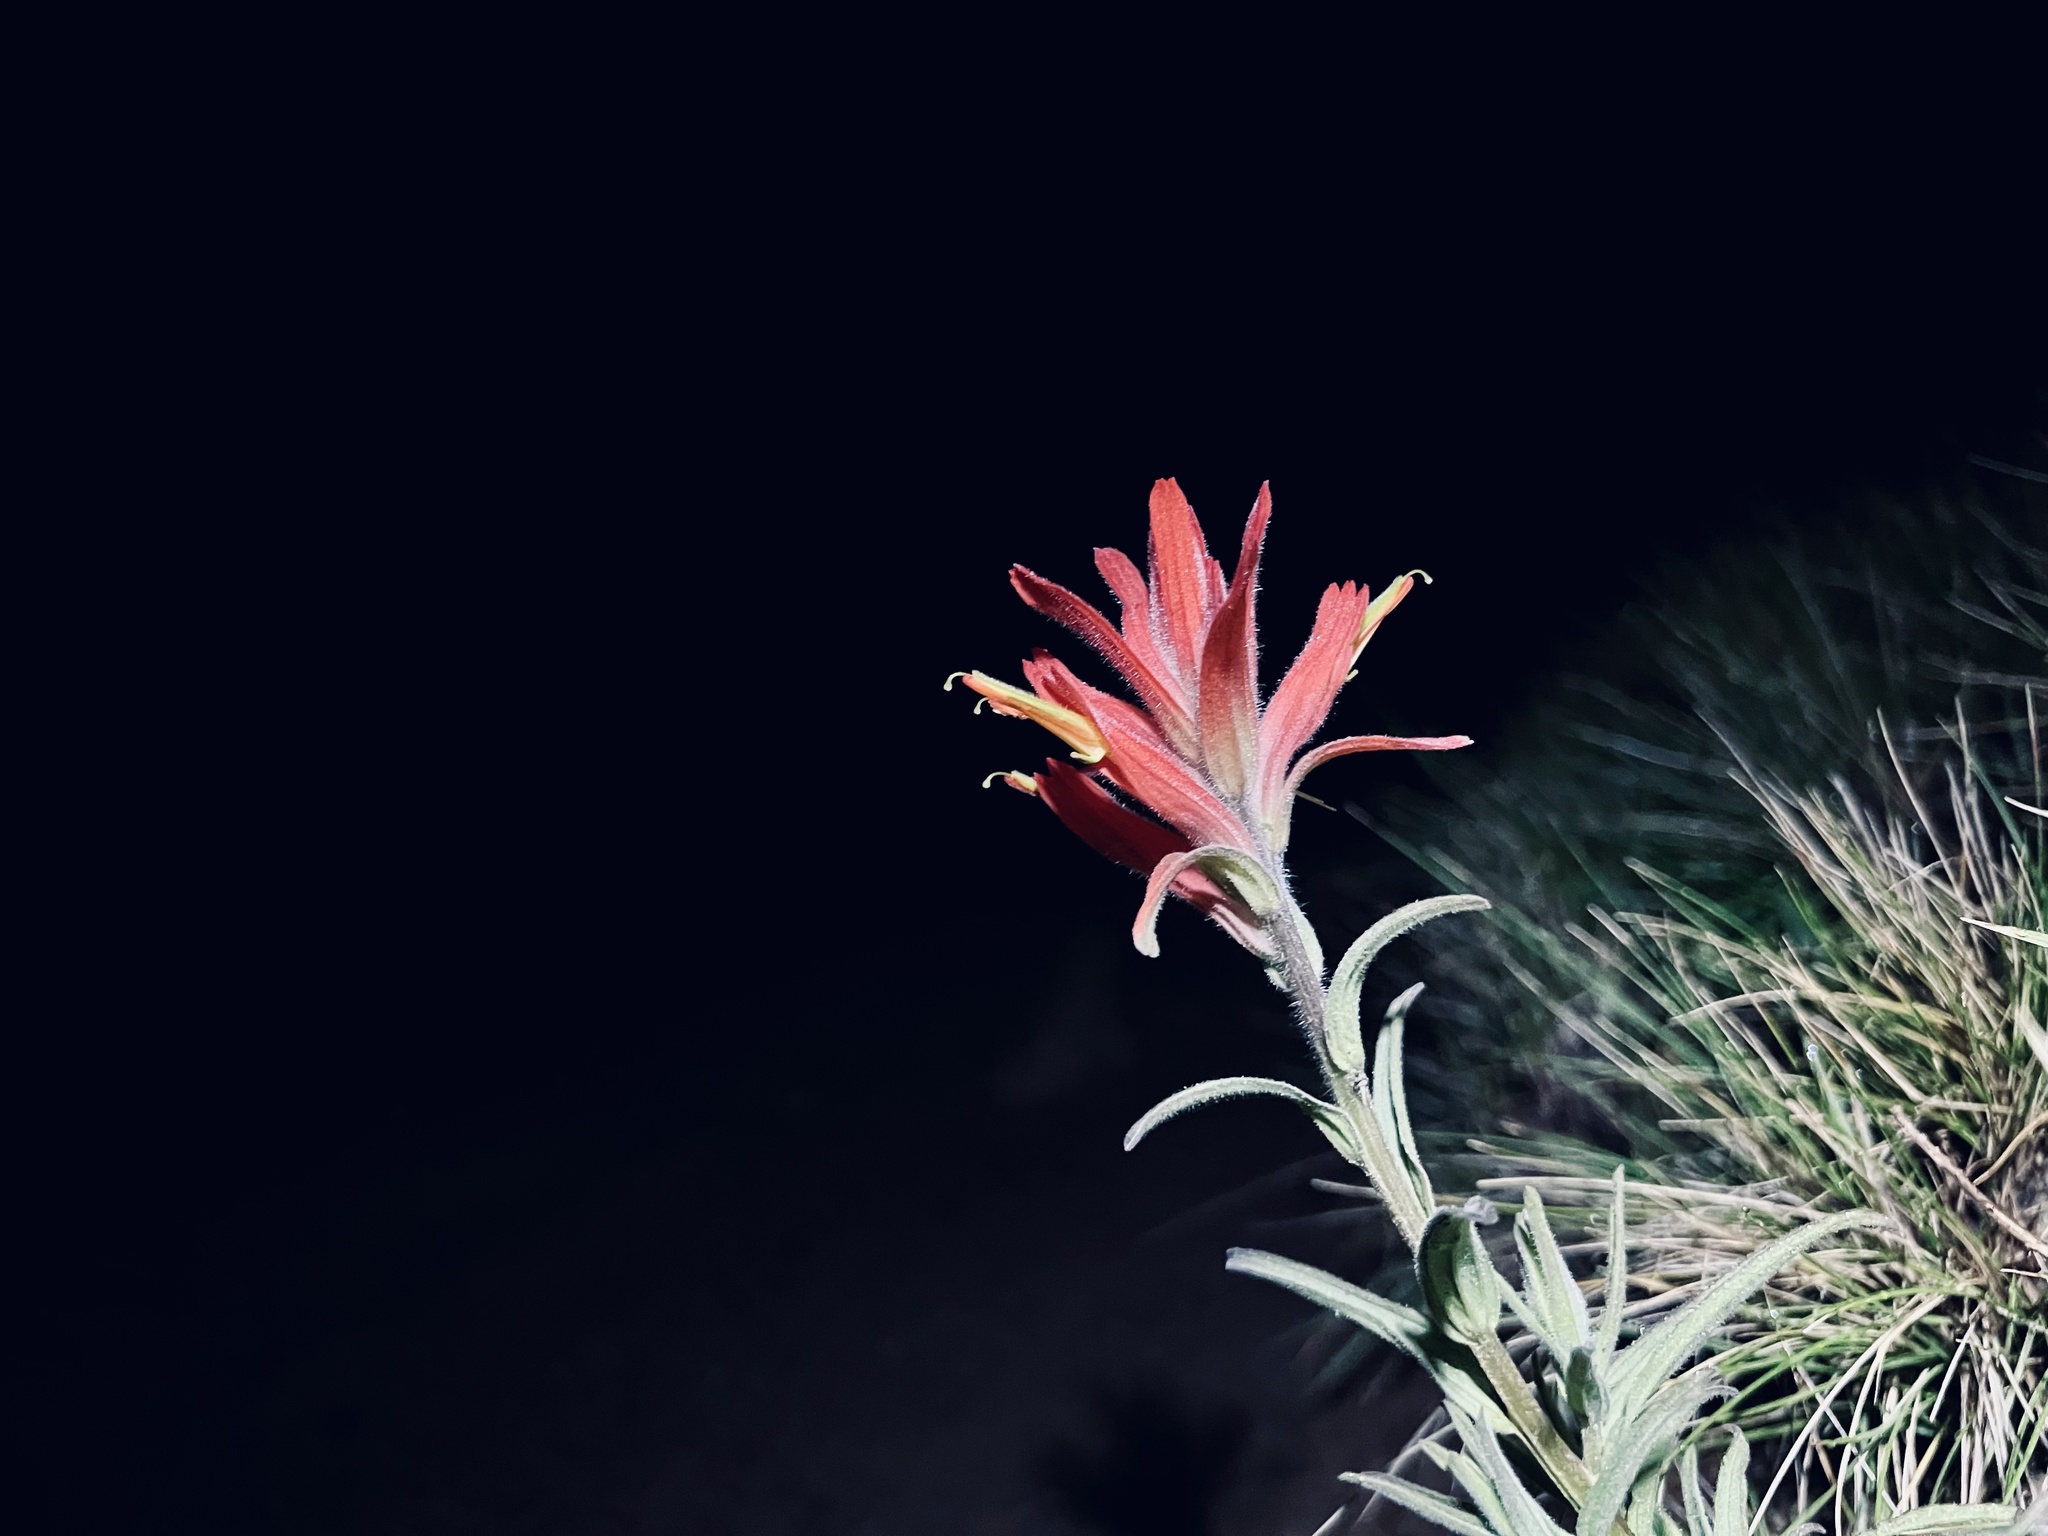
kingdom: Plantae
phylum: Tracheophyta
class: Magnoliopsida
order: Lamiales
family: Orobanchaceae
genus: Castilleja
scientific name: Castilleja subinclusa
